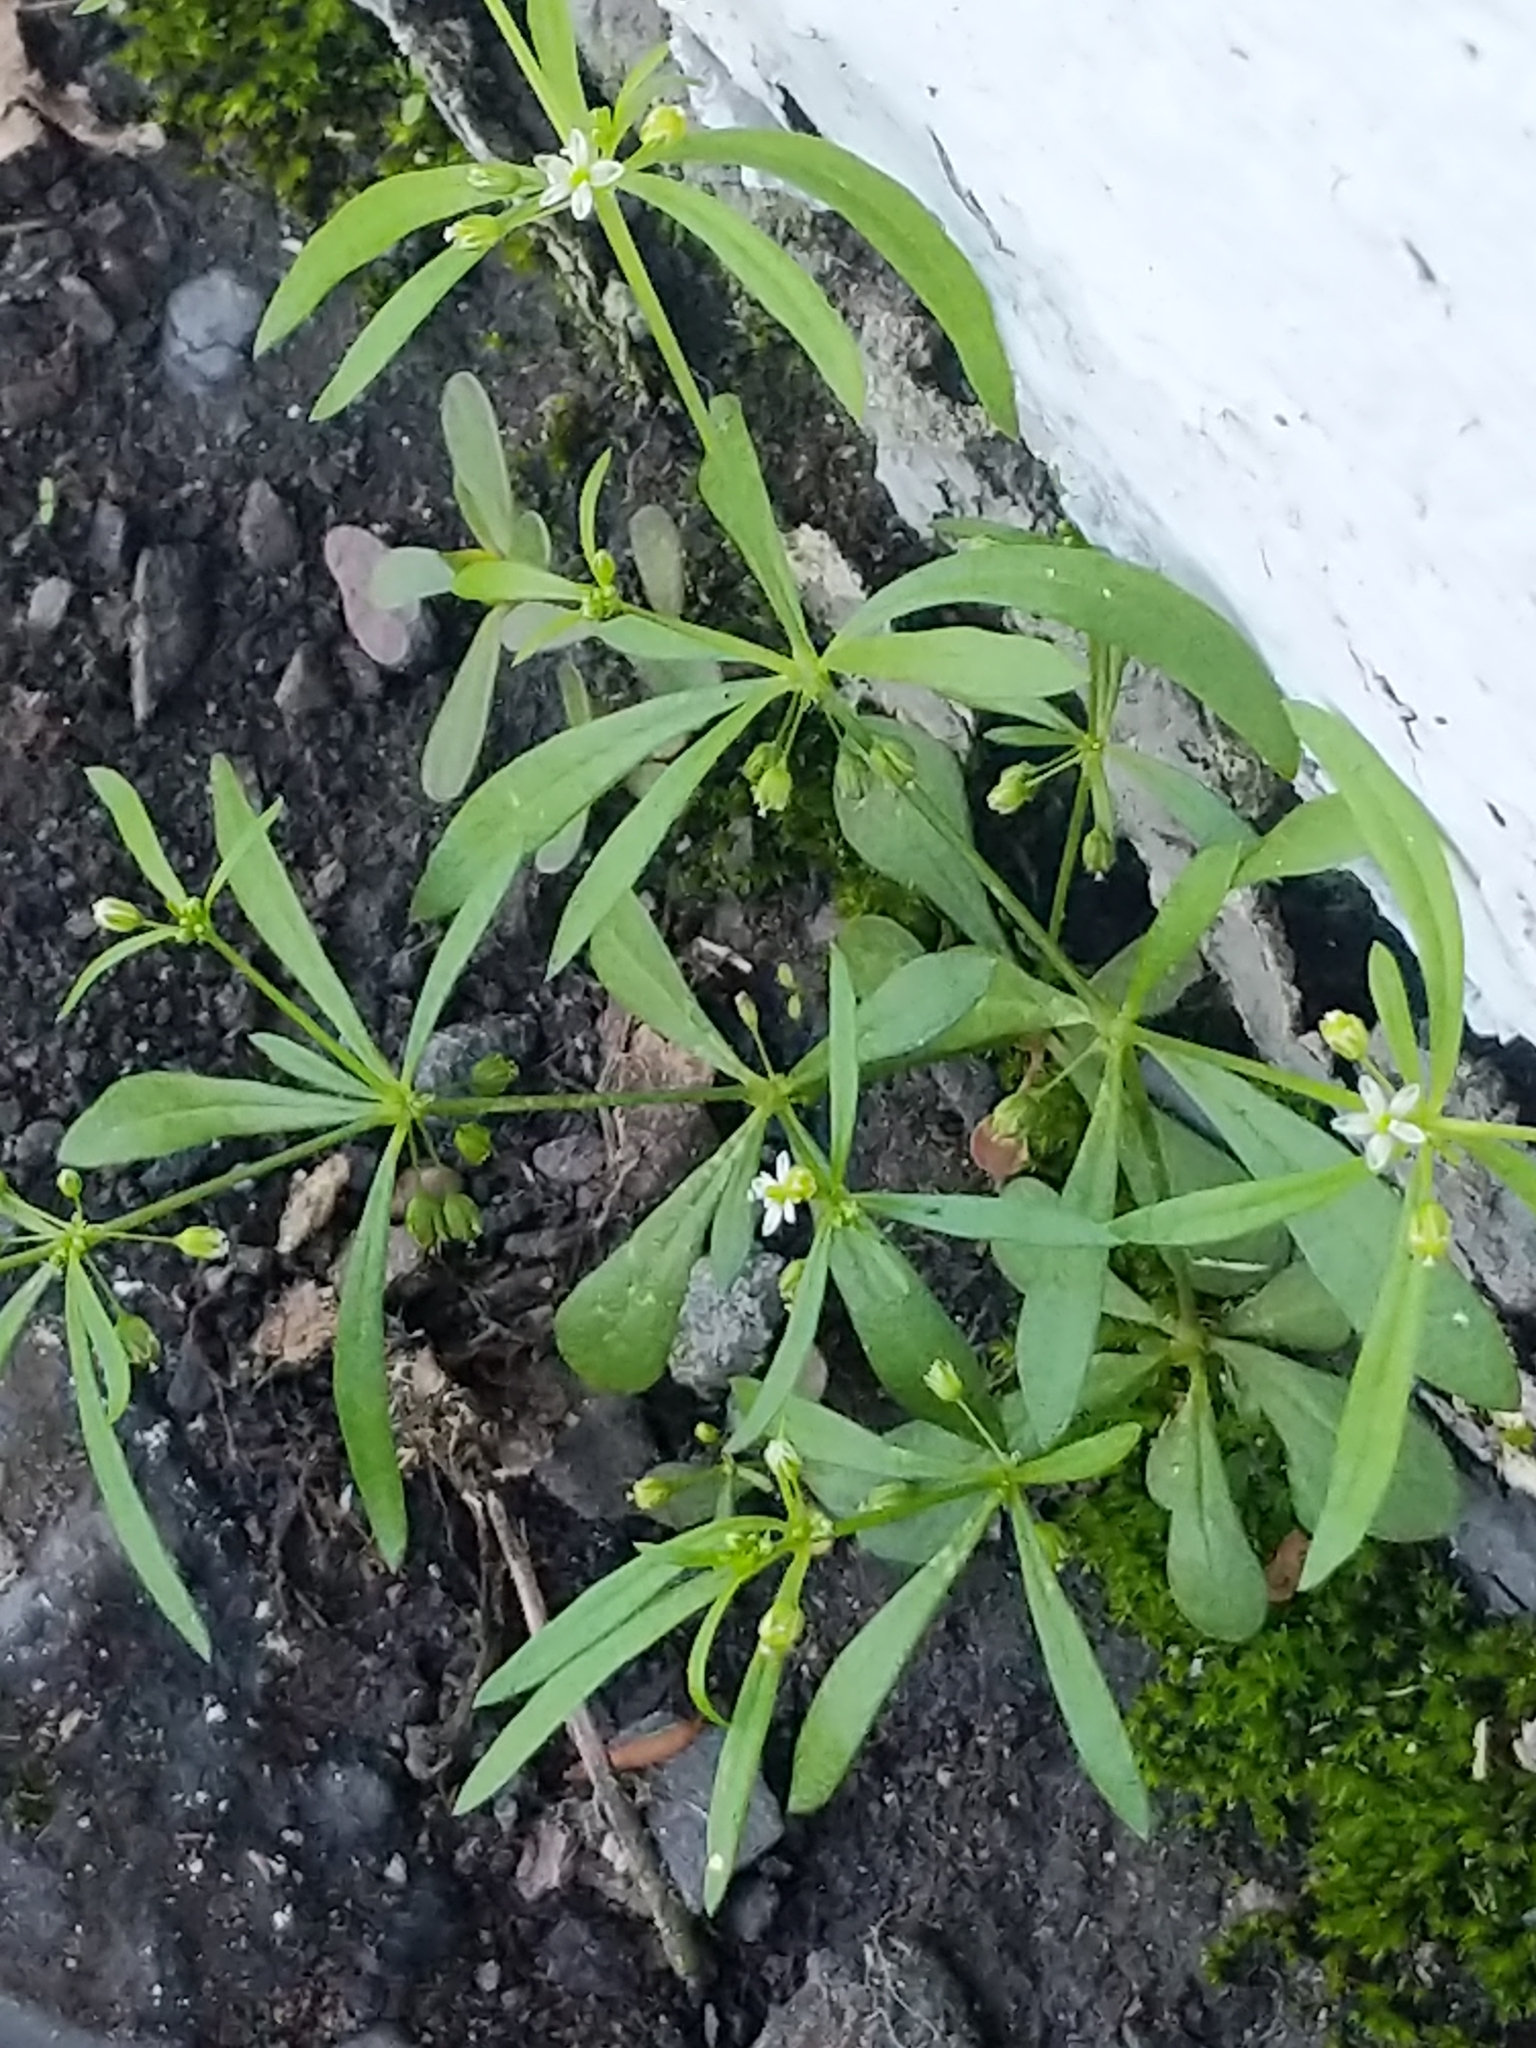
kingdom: Plantae
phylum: Tracheophyta
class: Magnoliopsida
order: Caryophyllales
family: Molluginaceae
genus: Mollugo
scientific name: Mollugo verticillata
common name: Green carpetweed
